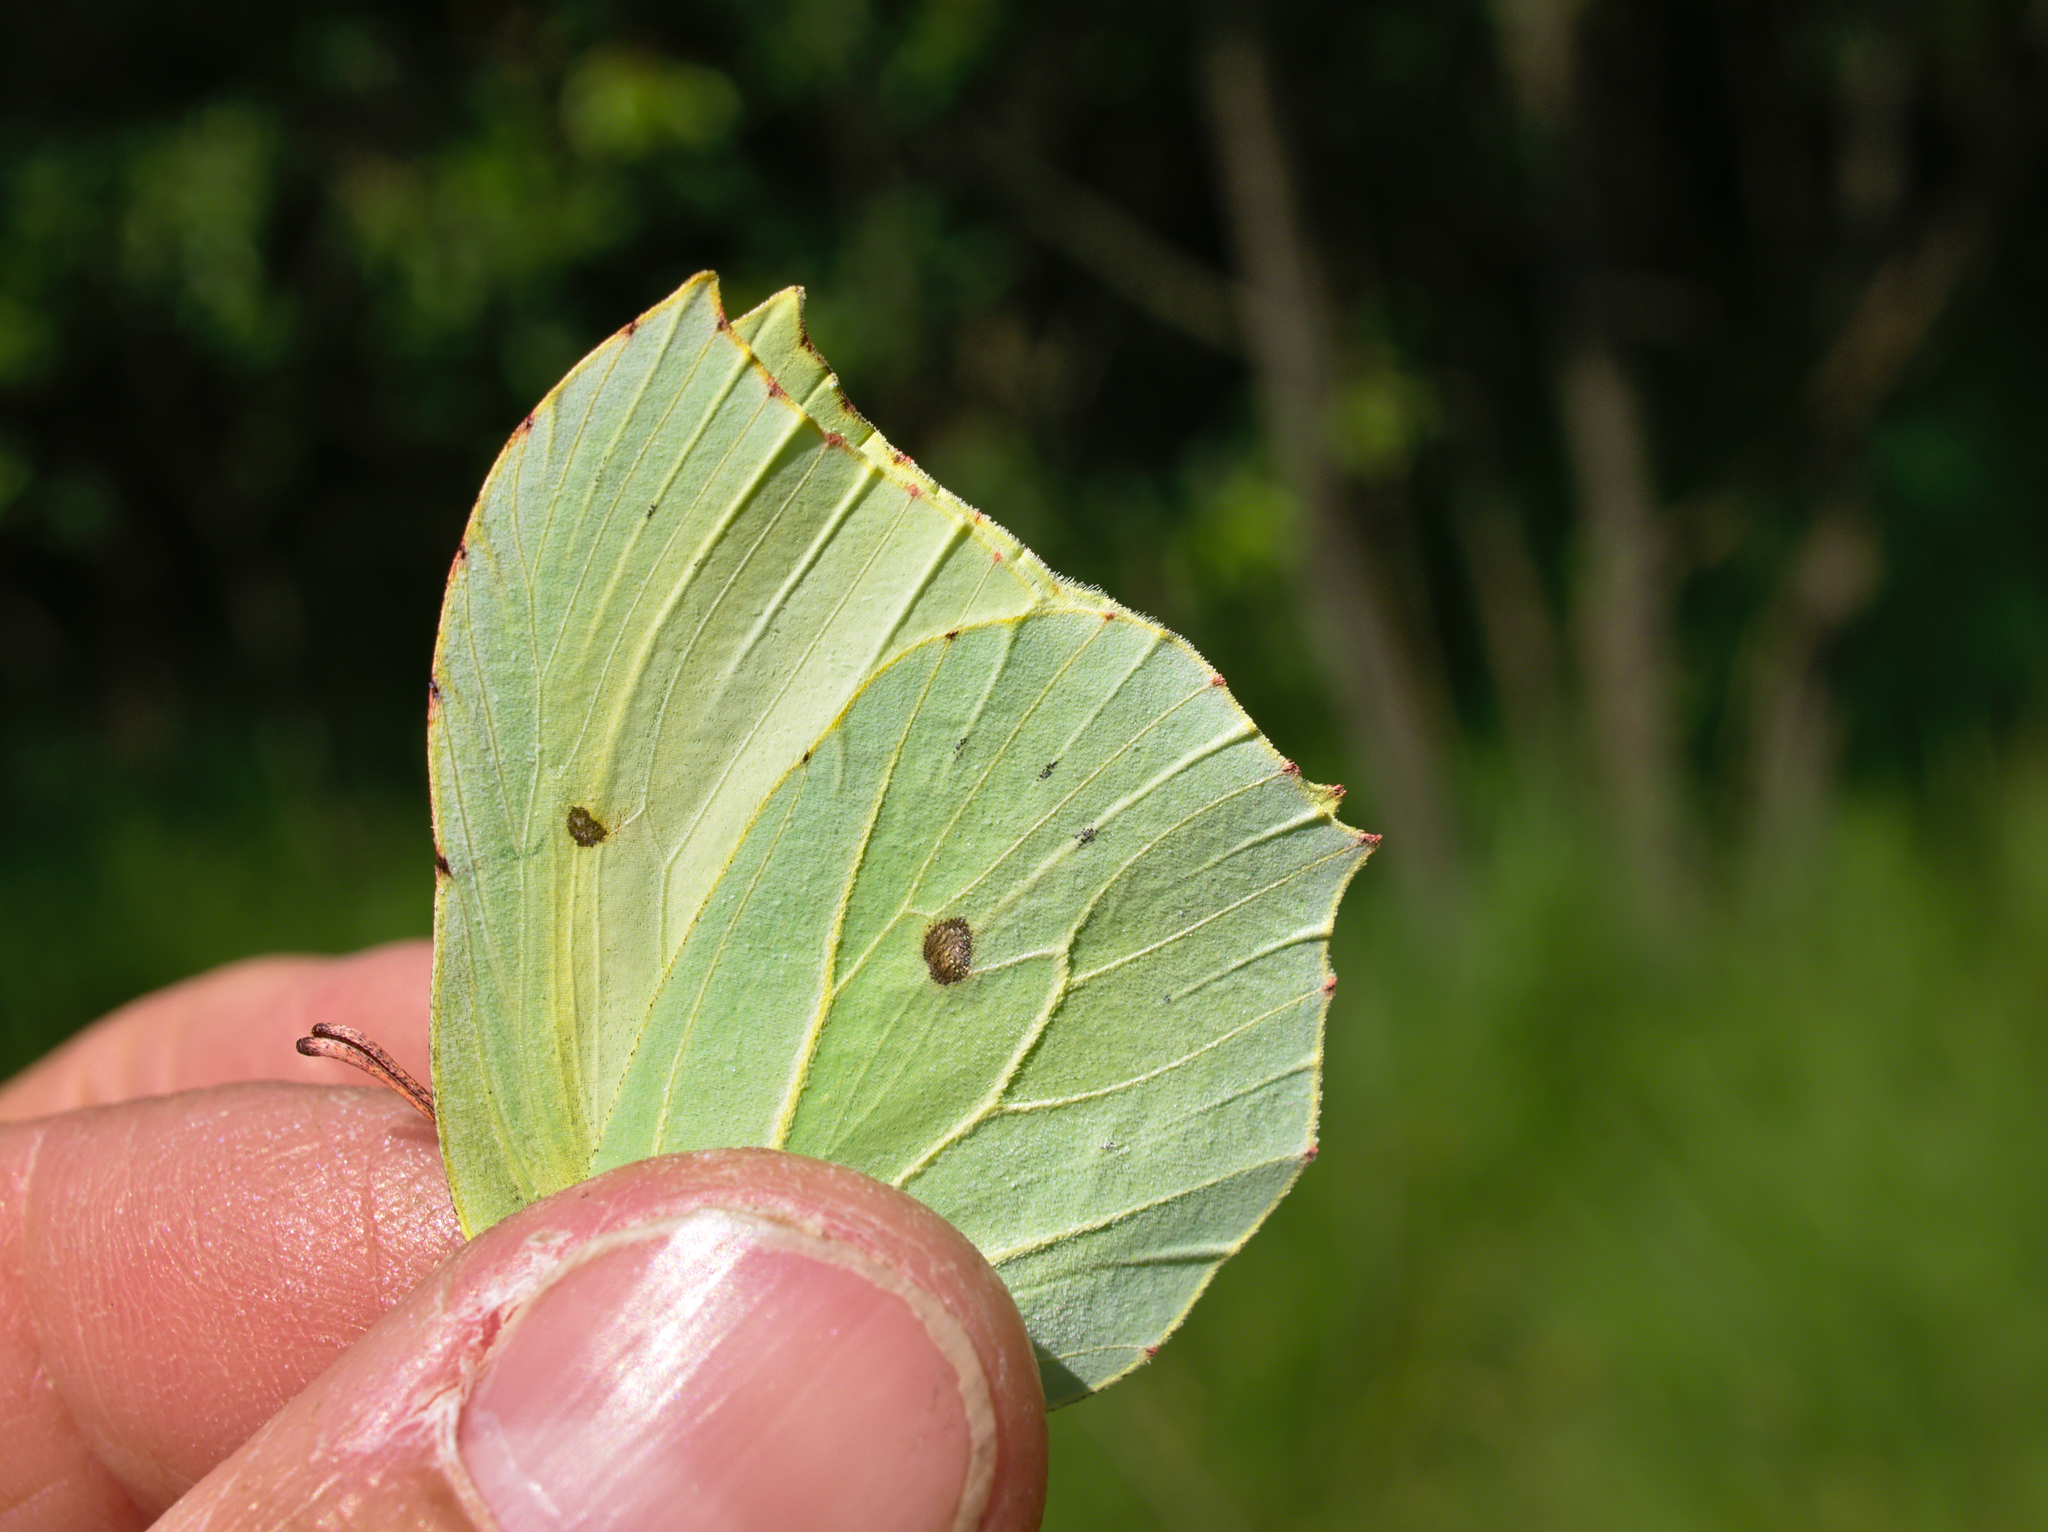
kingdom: Animalia
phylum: Arthropoda
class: Insecta
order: Lepidoptera
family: Pieridae
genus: Gonepteryx
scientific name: Gonepteryx rhamni
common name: Brimstone
